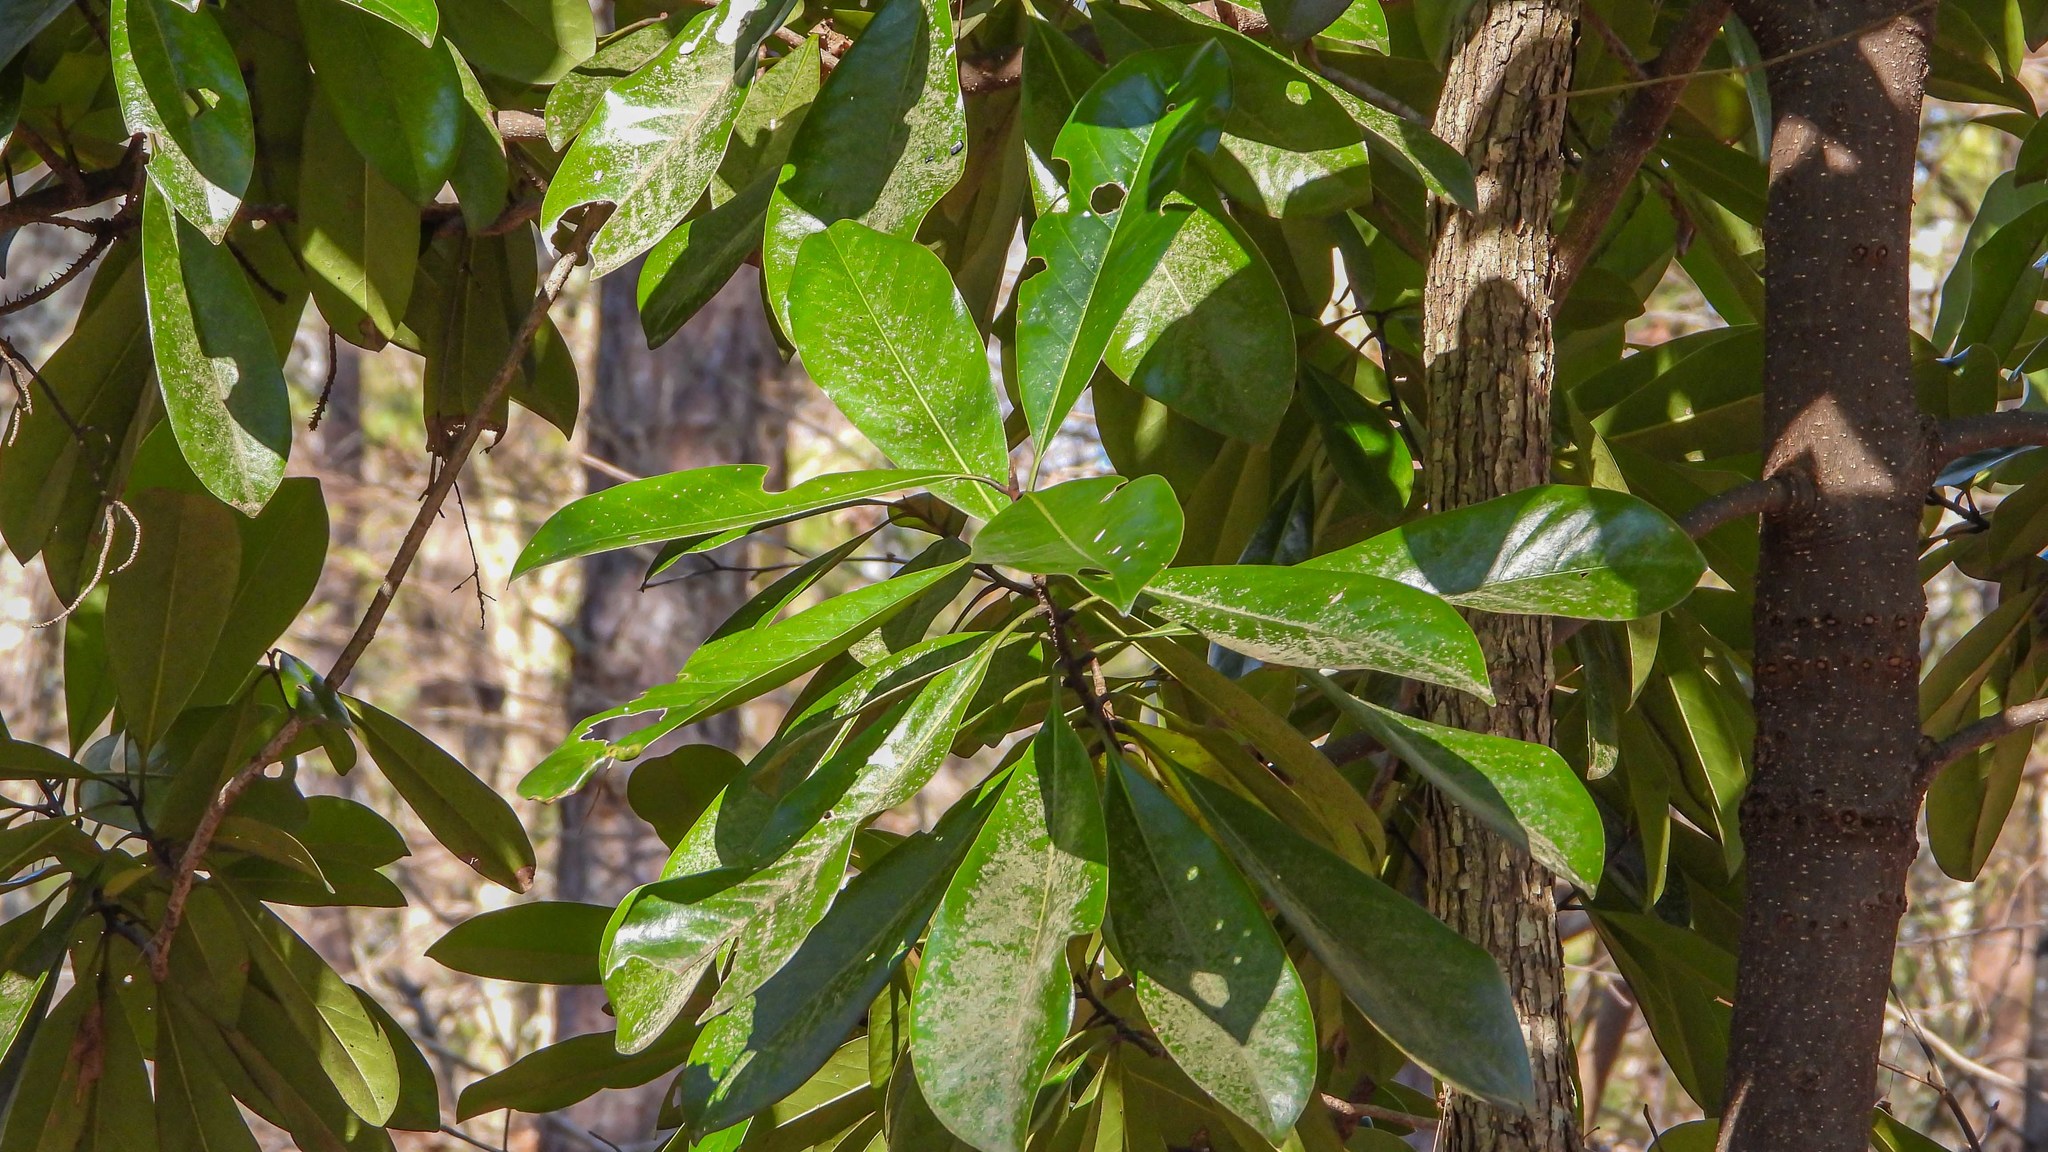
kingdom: Plantae
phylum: Tracheophyta
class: Magnoliopsida
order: Magnoliales
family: Magnoliaceae
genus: Magnolia
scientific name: Magnolia grandiflora
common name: Southern magnolia
